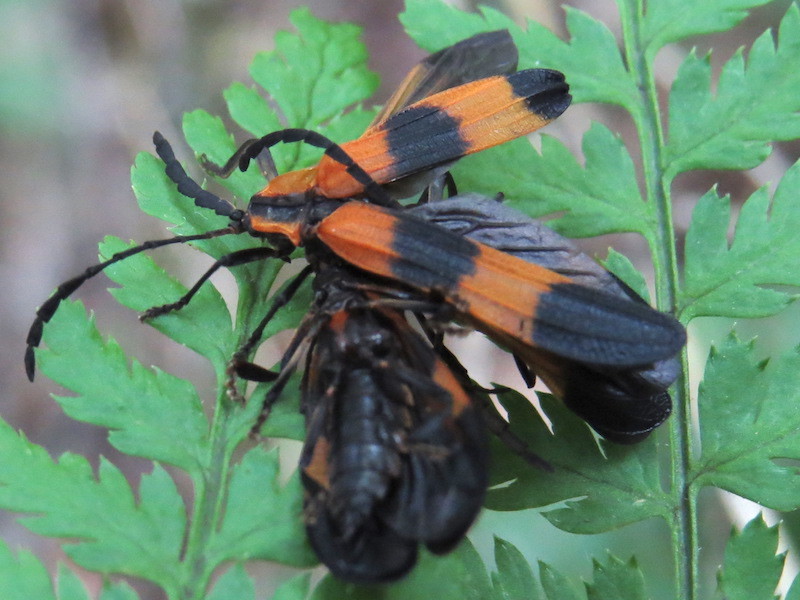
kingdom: Animalia
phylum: Arthropoda
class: Insecta
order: Coleoptera
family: Lycidae
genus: Calopteron
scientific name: Calopteron reticulatum
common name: Banded net-winged beetle
